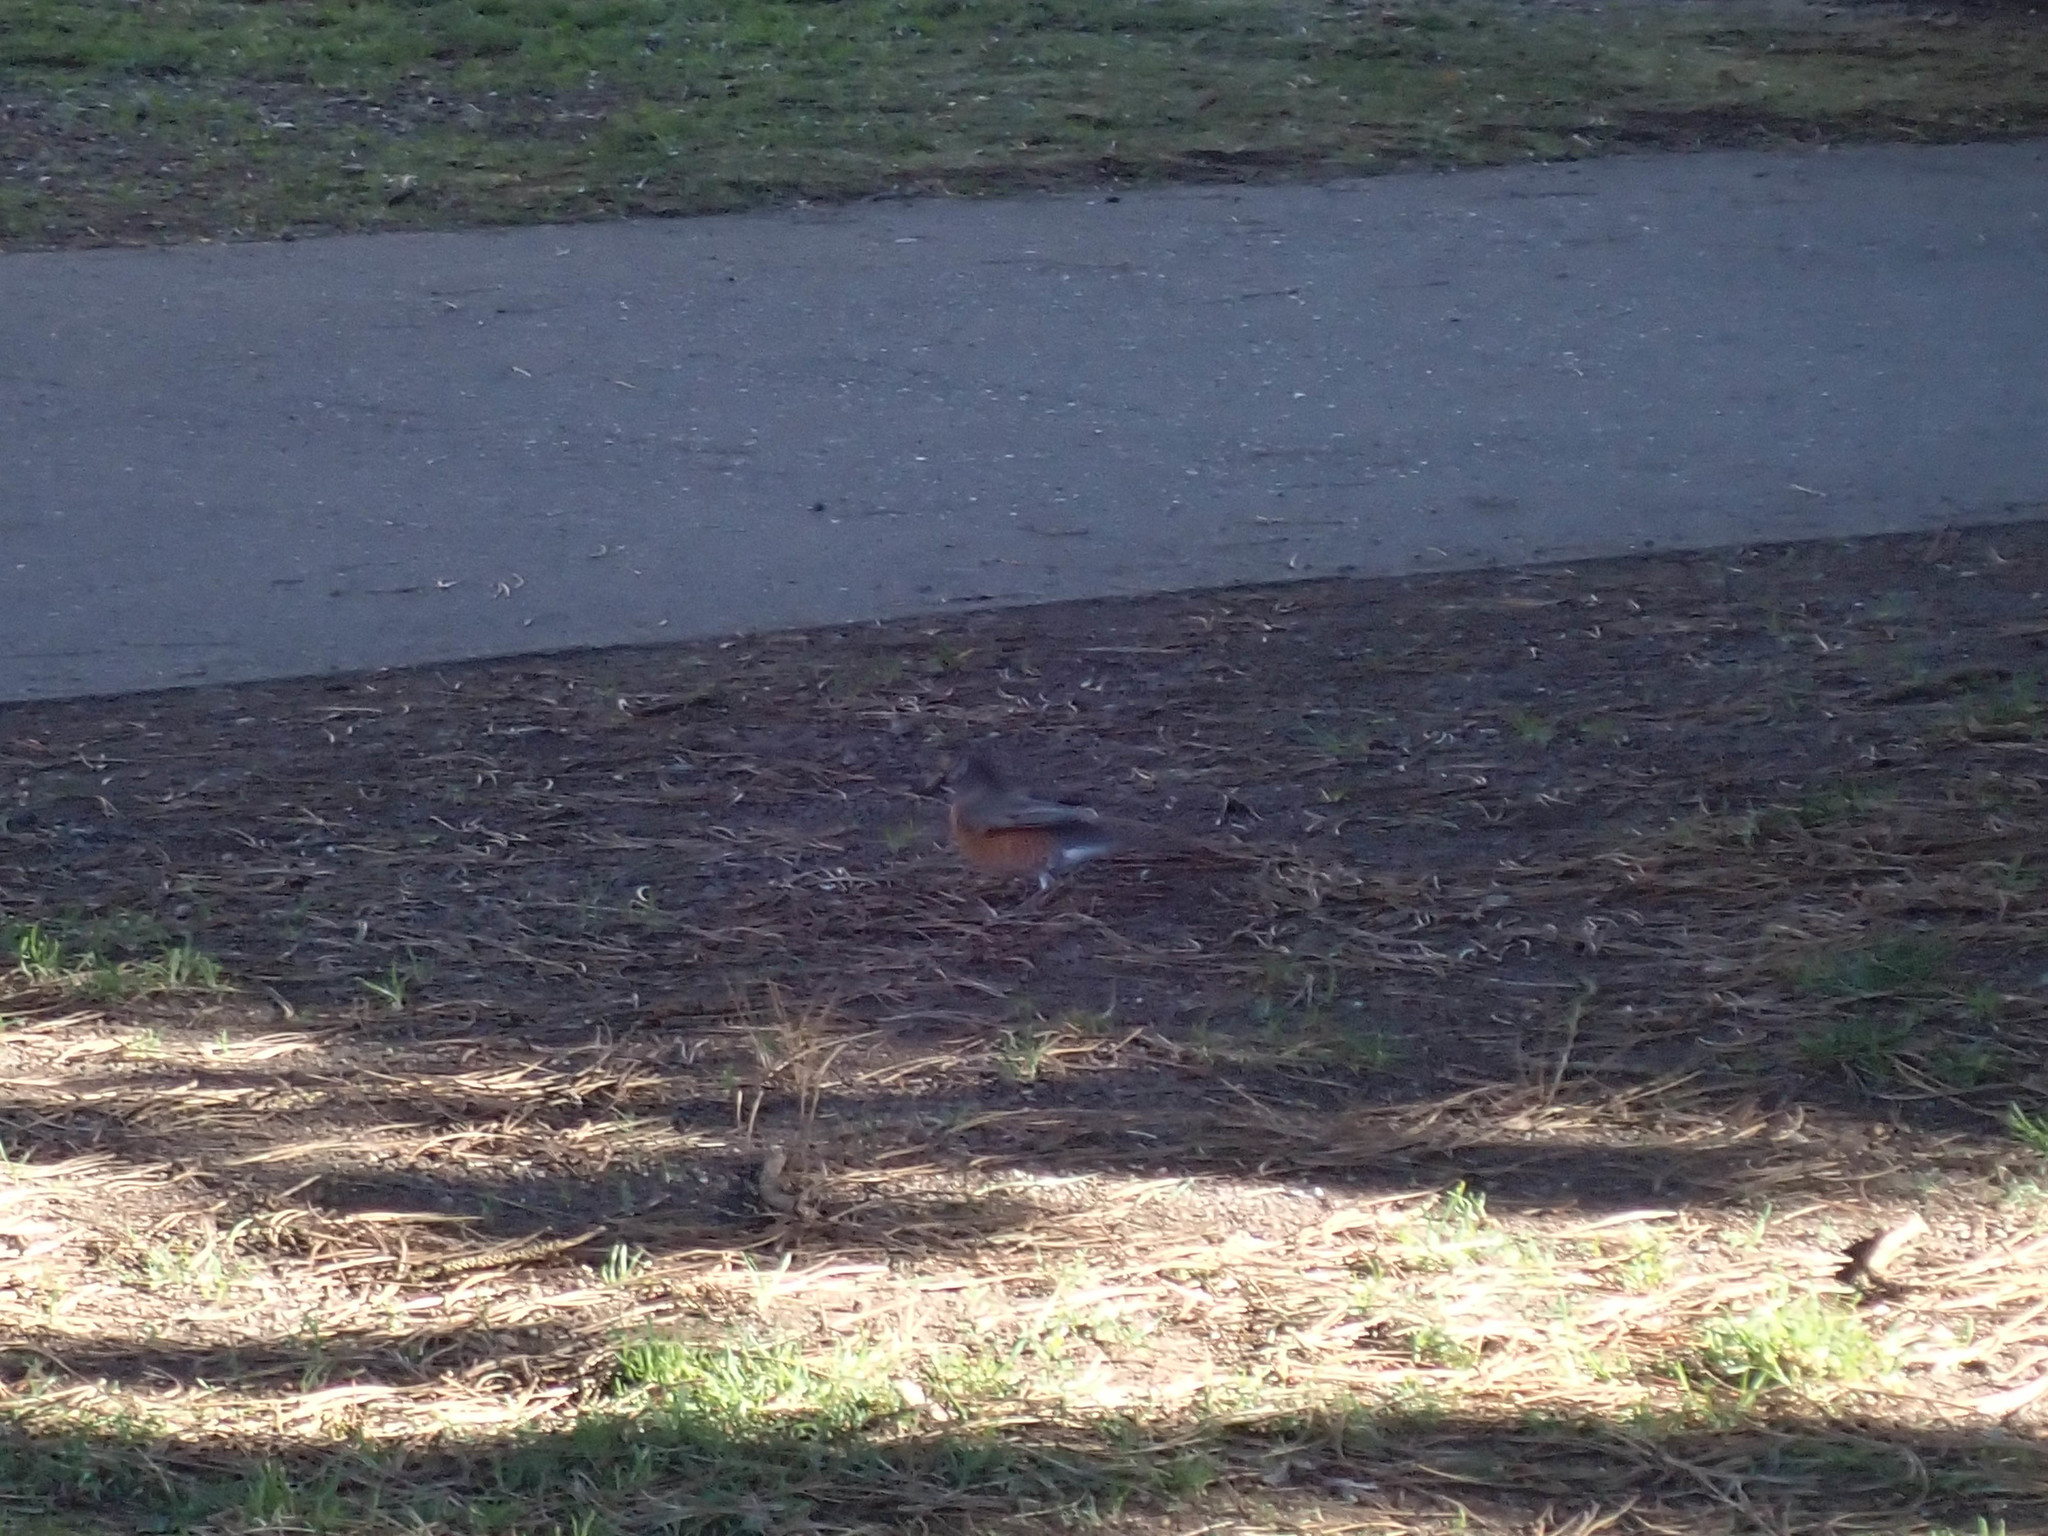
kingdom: Animalia
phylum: Chordata
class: Aves
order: Passeriformes
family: Turdidae
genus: Turdus
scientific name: Turdus migratorius
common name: American robin
